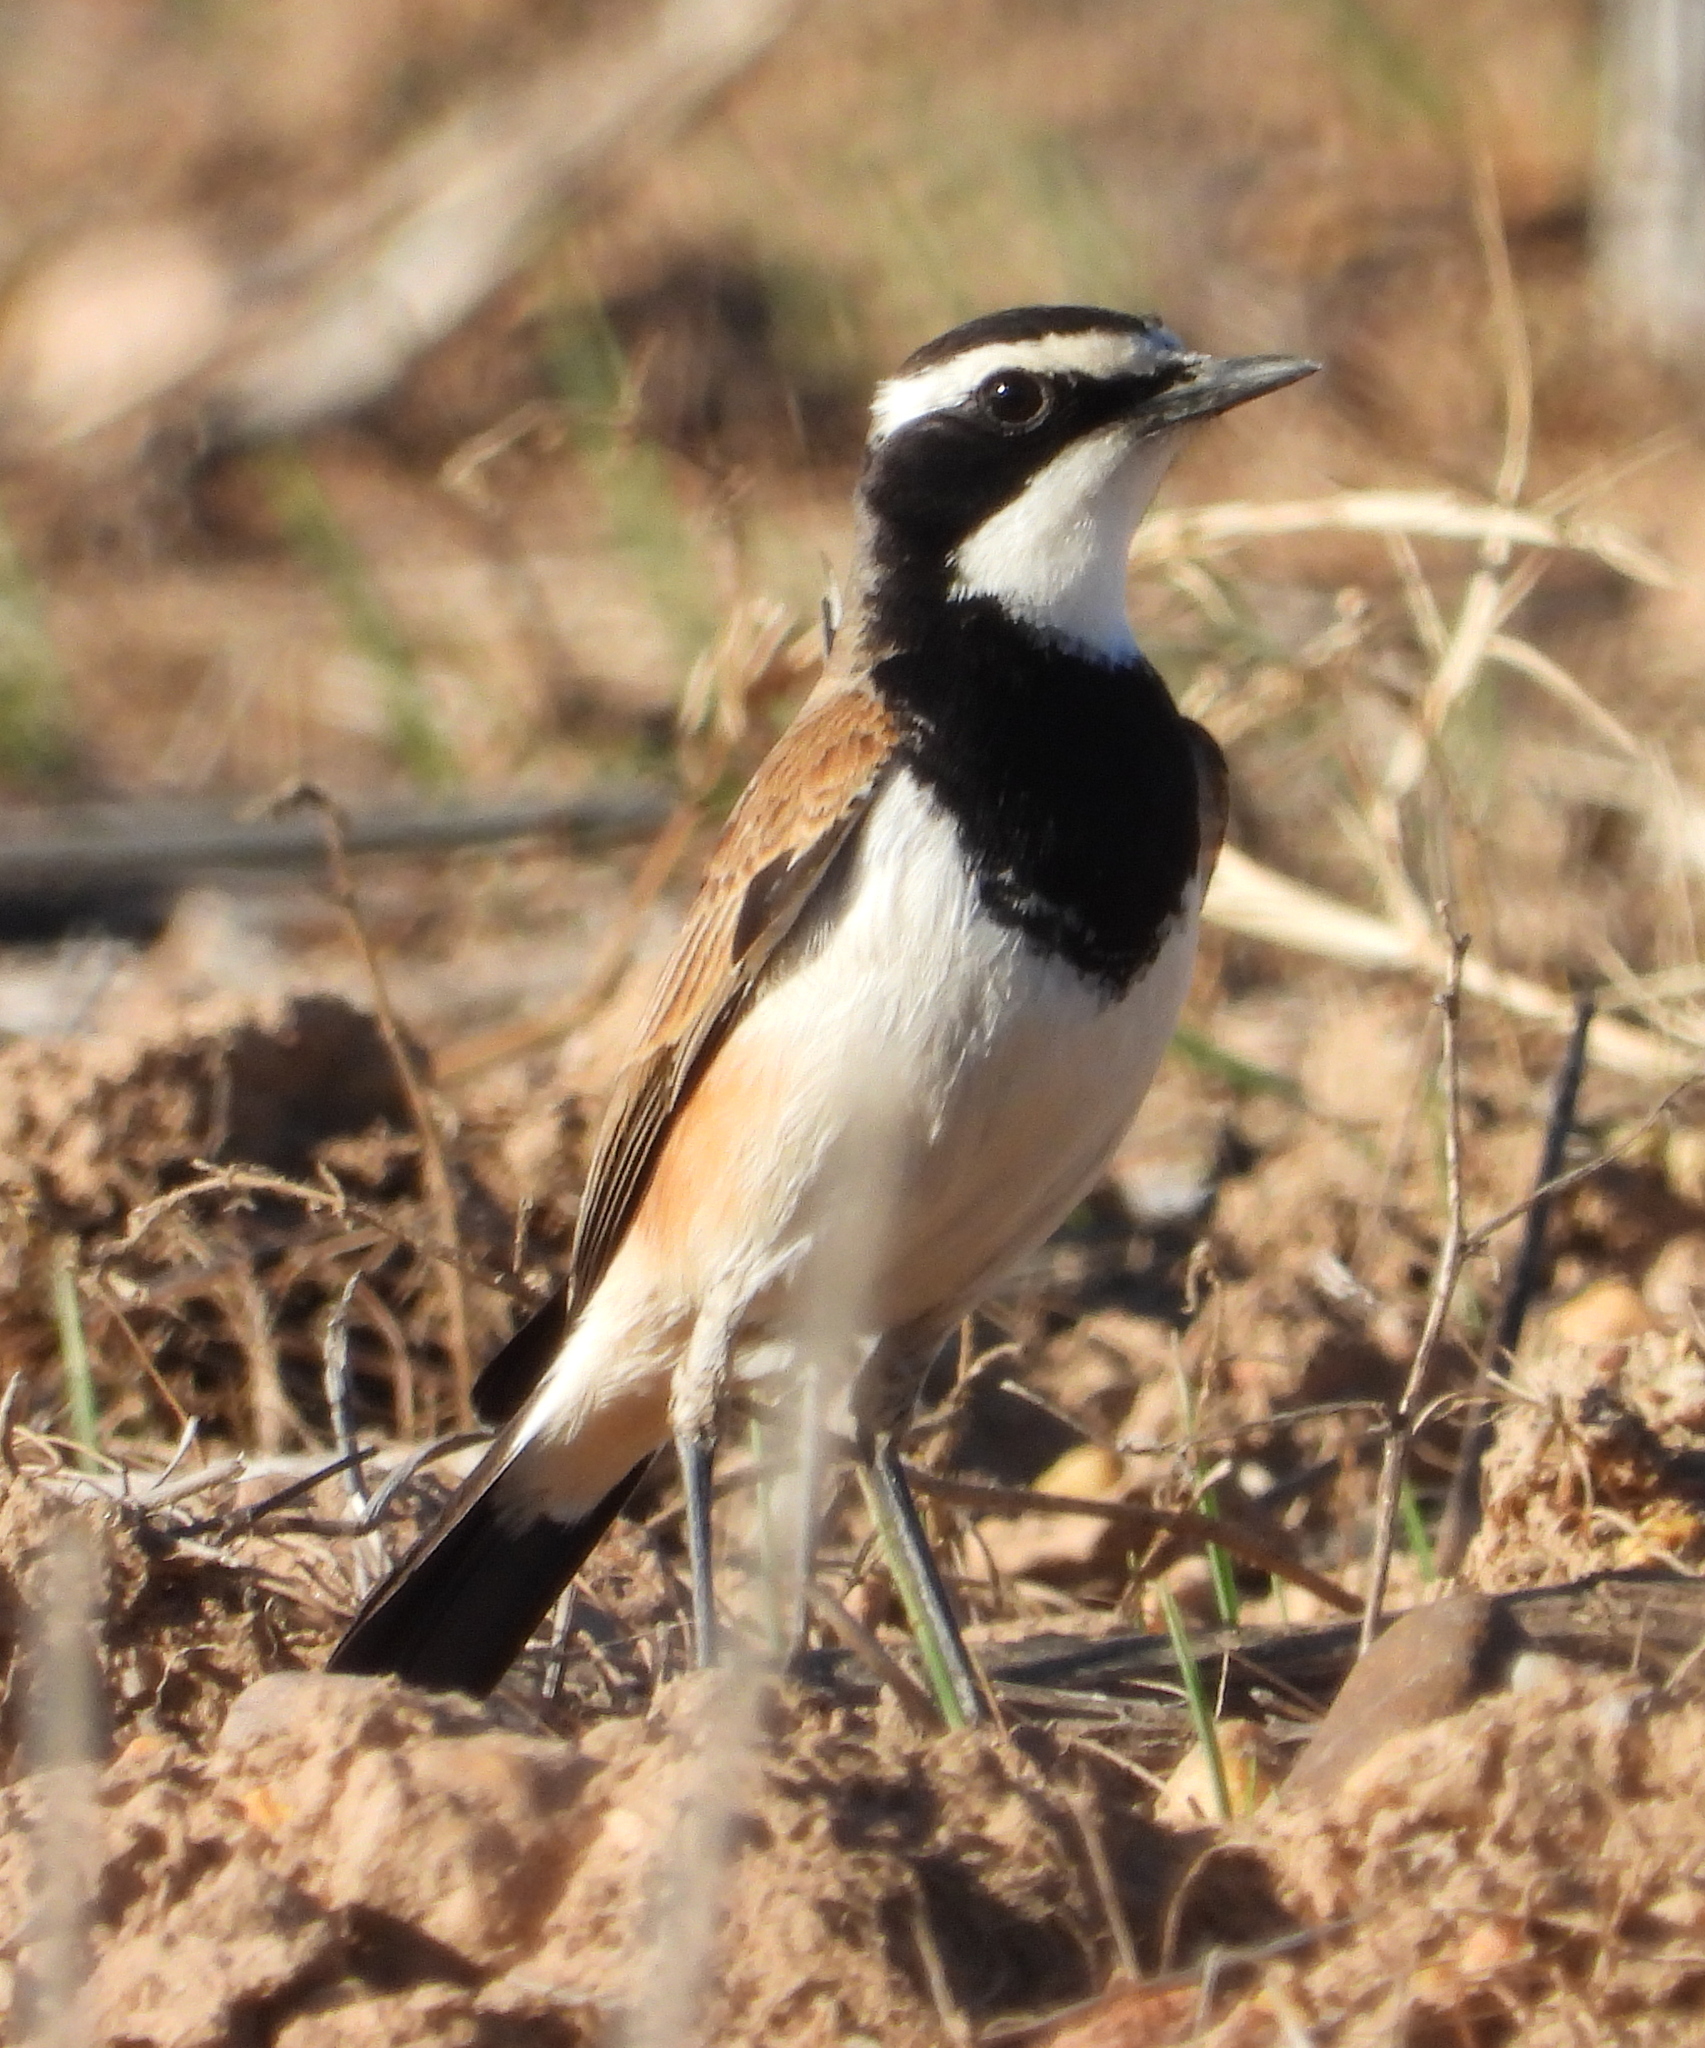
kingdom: Animalia
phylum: Chordata
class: Aves
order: Passeriformes
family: Muscicapidae
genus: Oenanthe
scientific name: Oenanthe pileata
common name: Capped wheatear
